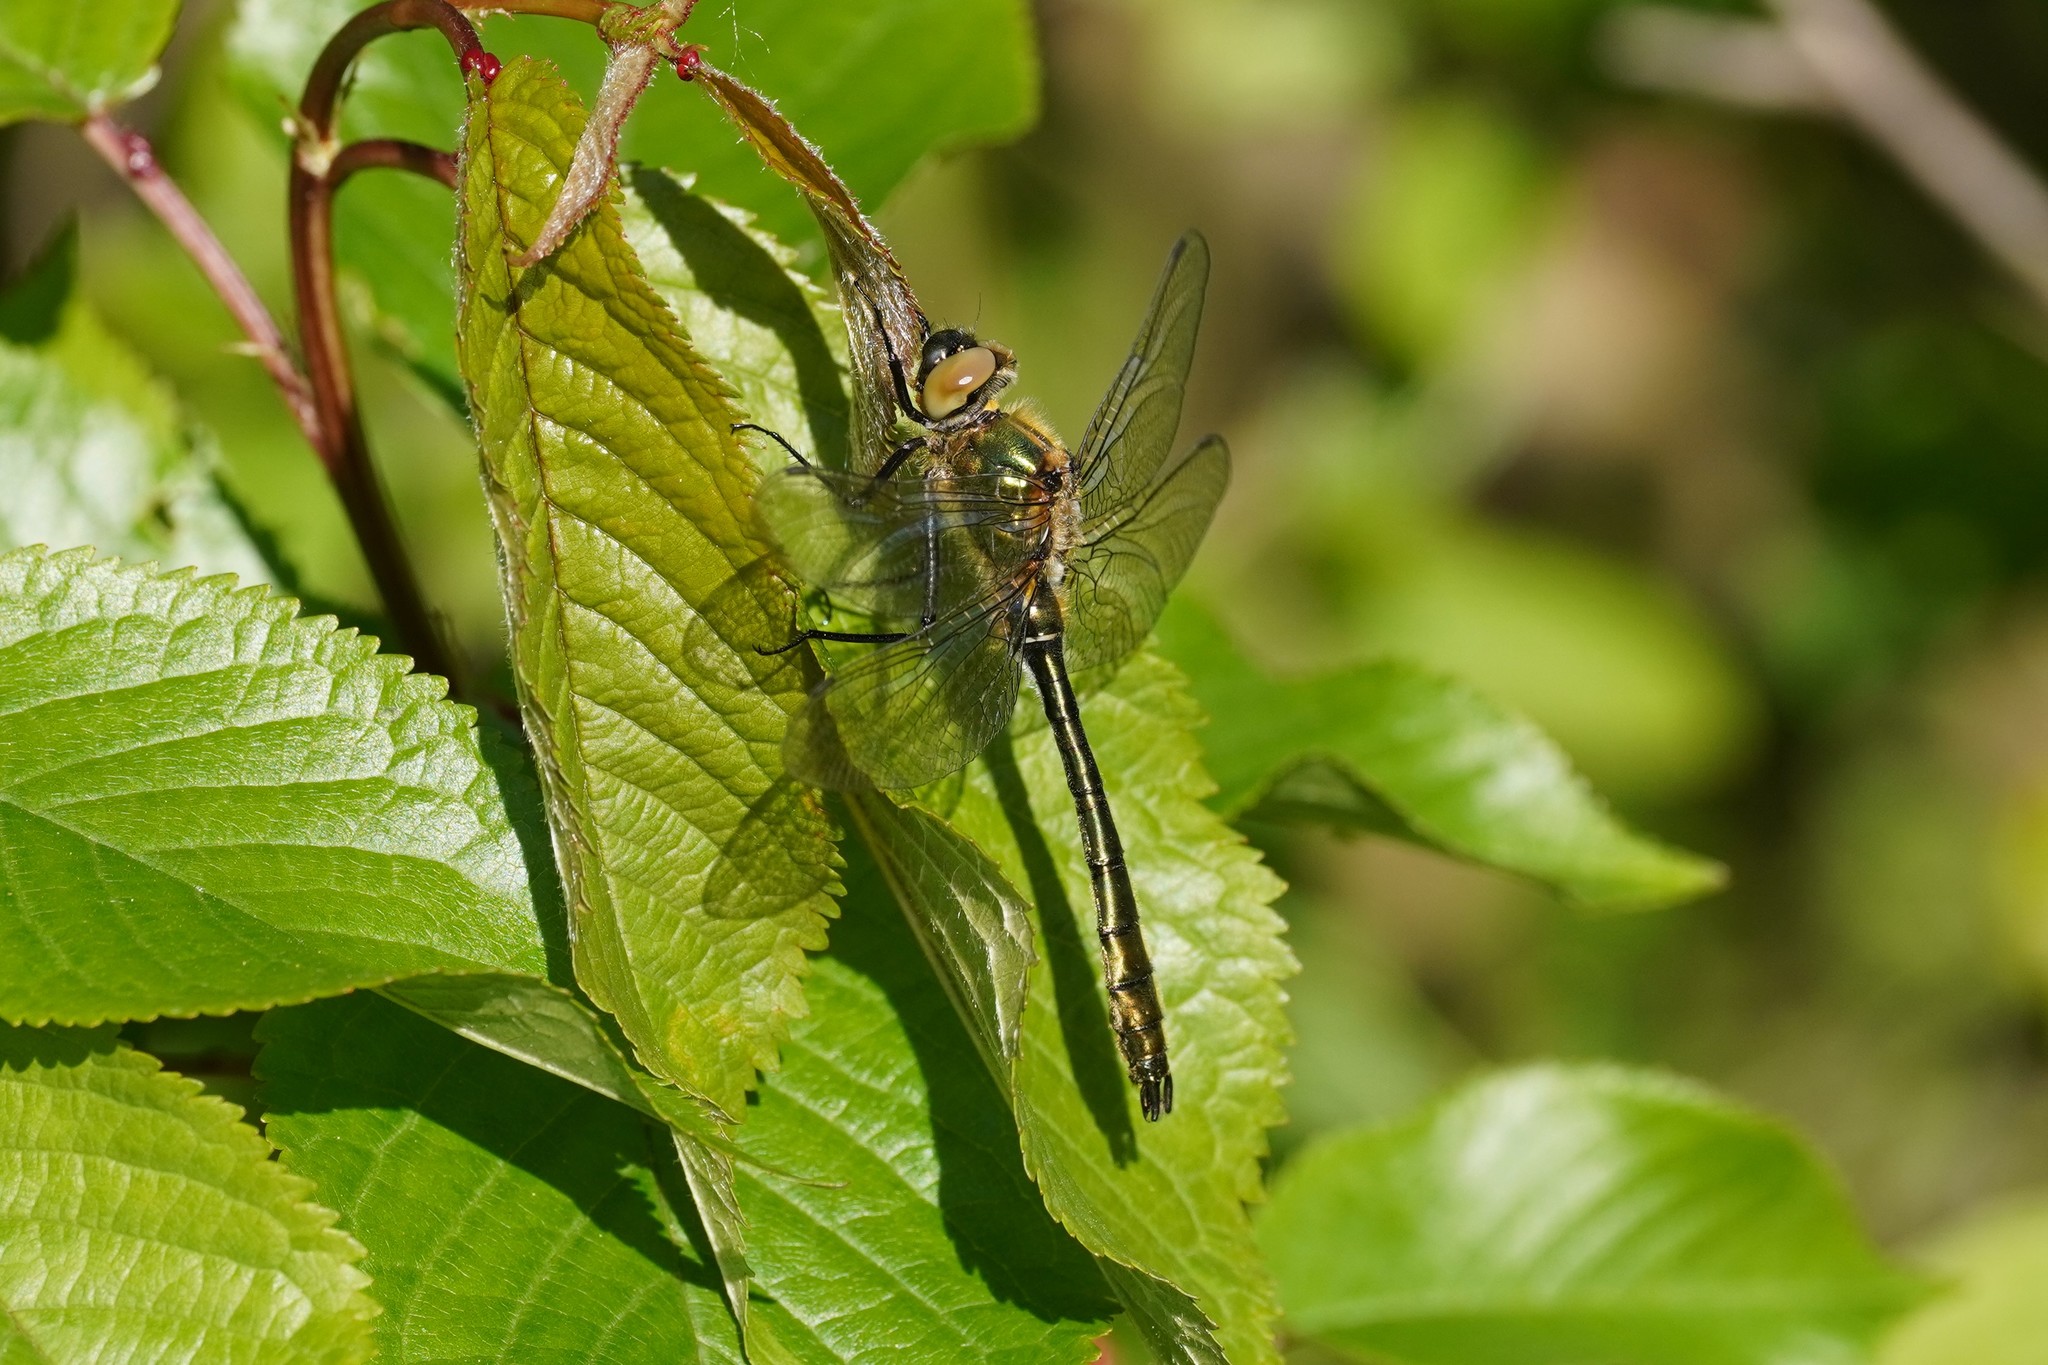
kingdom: Animalia
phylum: Arthropoda
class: Insecta
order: Odonata
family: Corduliidae
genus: Cordulia
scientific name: Cordulia aenea
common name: Downy emerald
